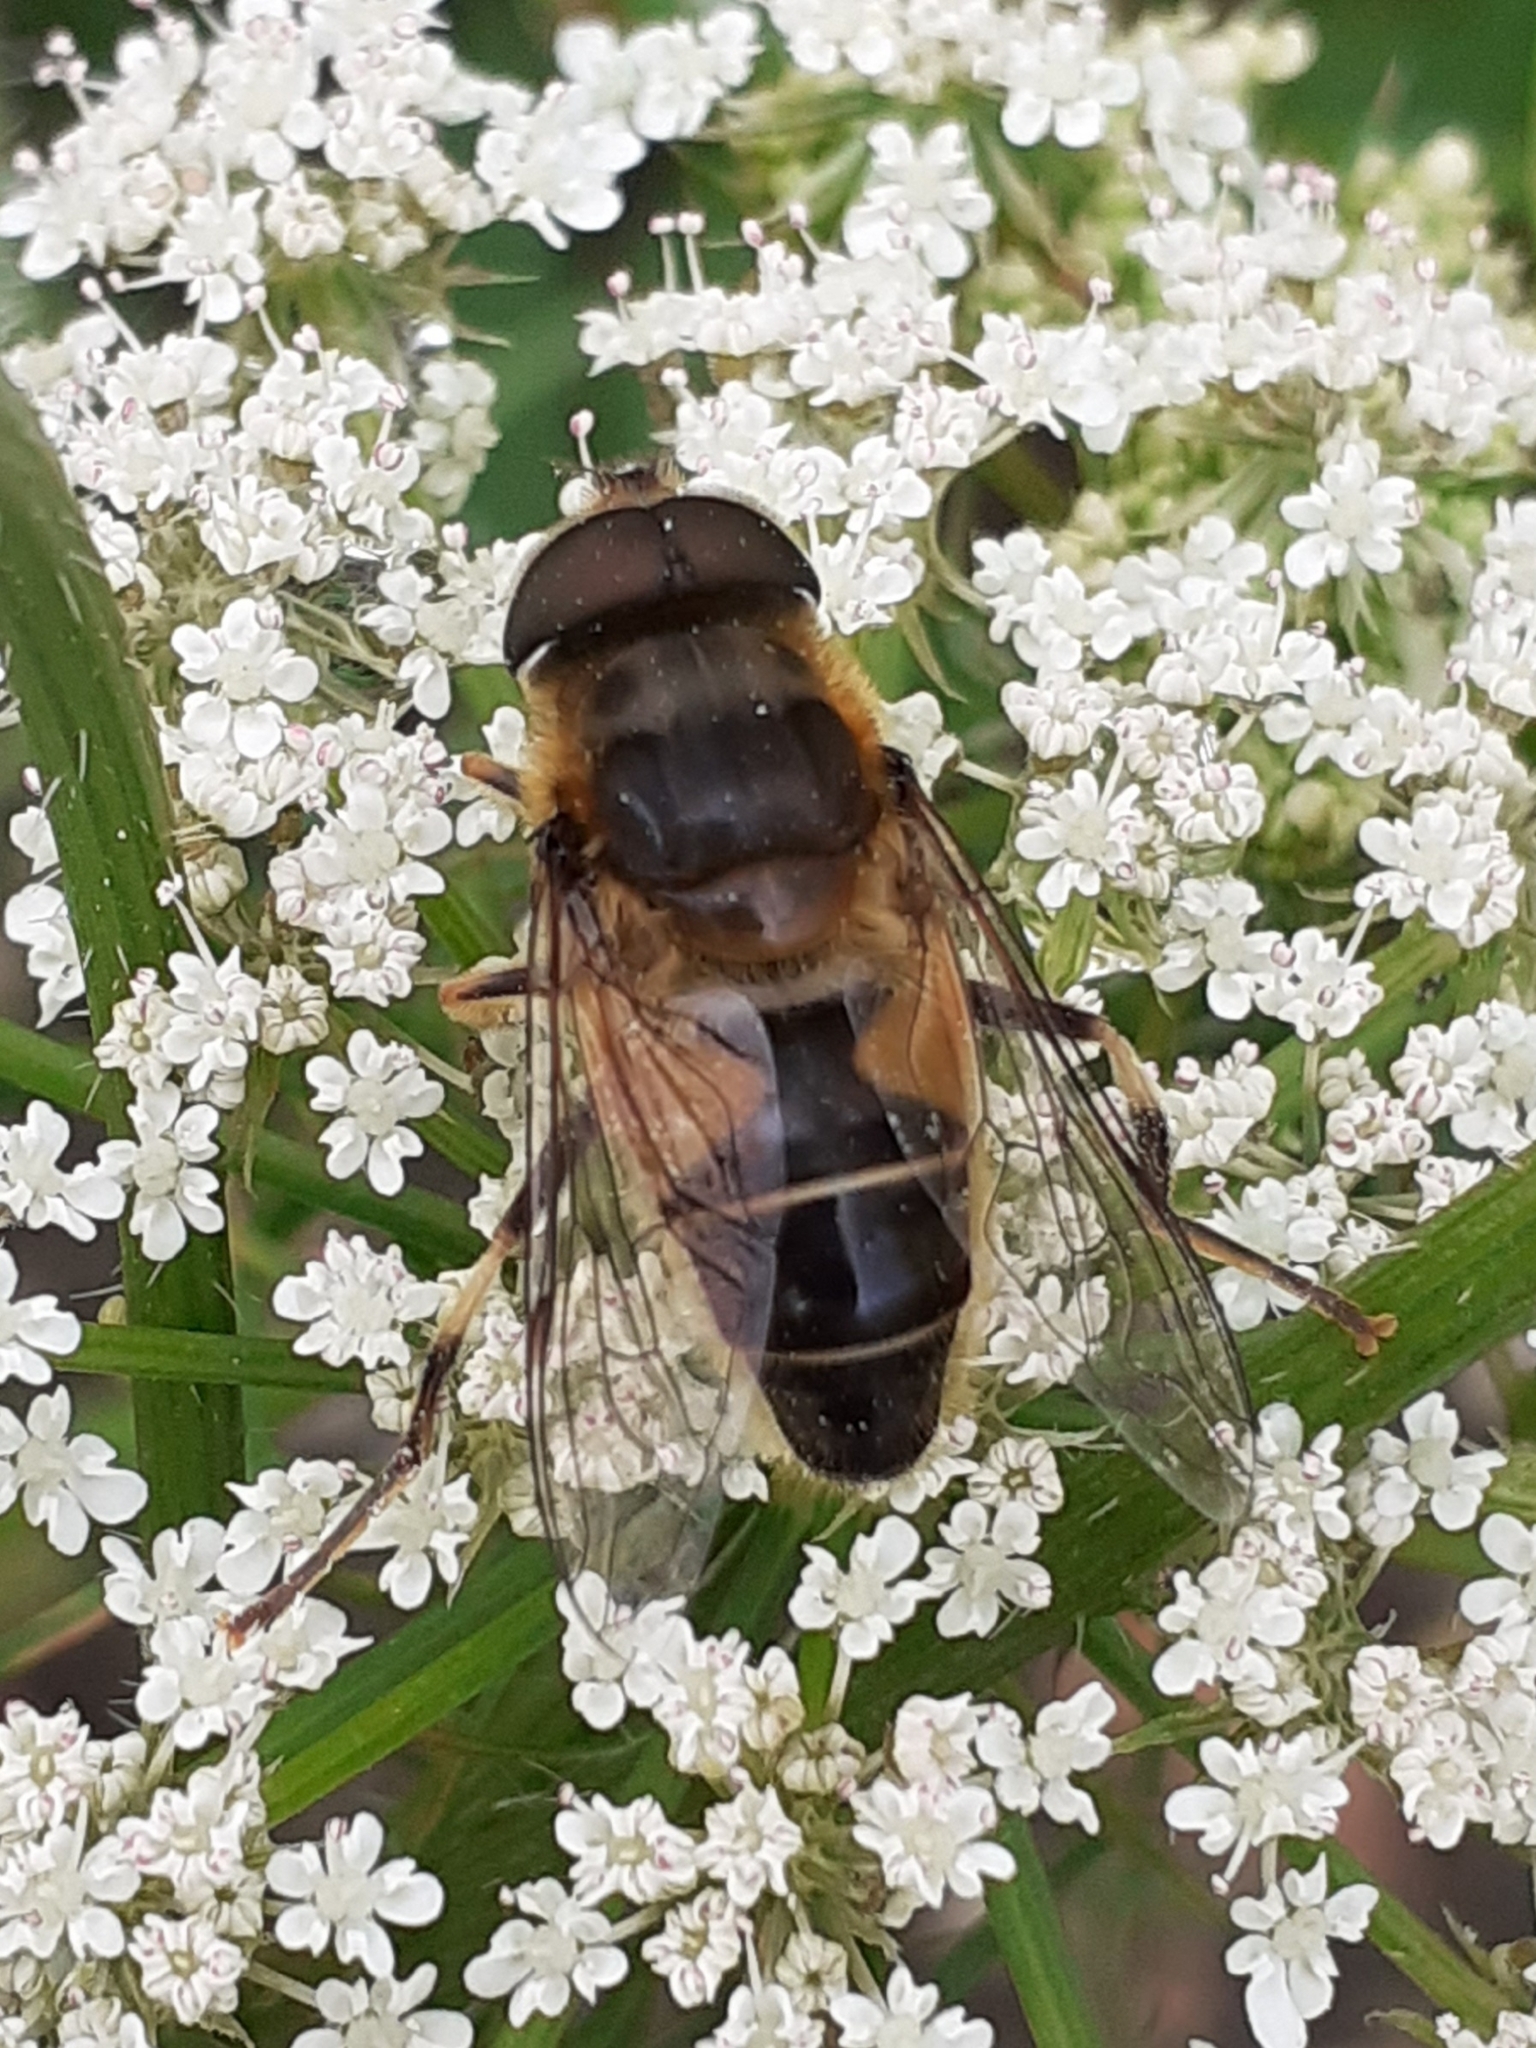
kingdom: Animalia
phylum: Arthropoda
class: Insecta
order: Diptera
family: Syrphidae
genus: Eristalis
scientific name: Eristalis pertinax
